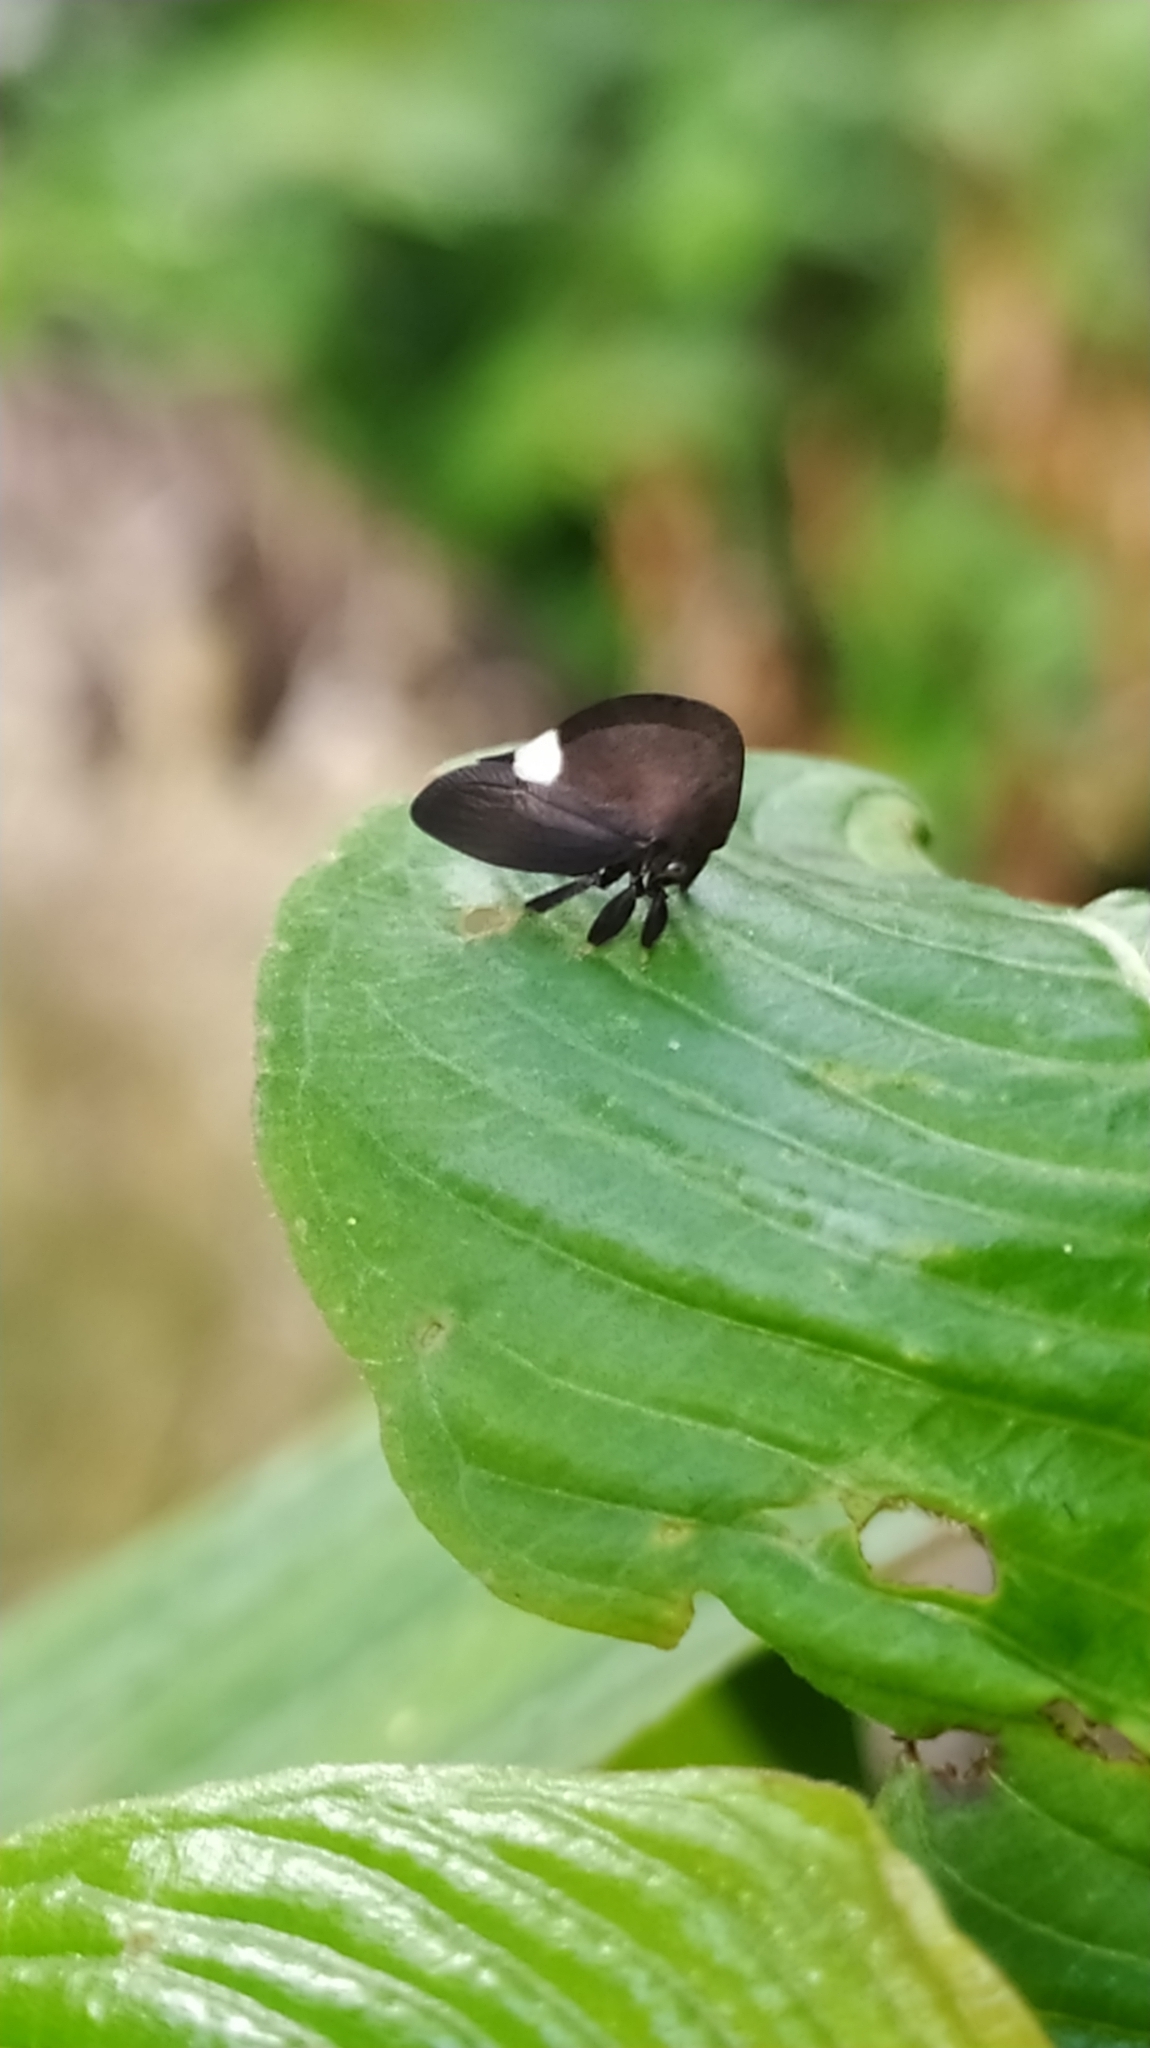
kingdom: Animalia
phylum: Arthropoda
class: Insecta
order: Hemiptera
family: Membracidae
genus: Membracis
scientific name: Membracis nigra
